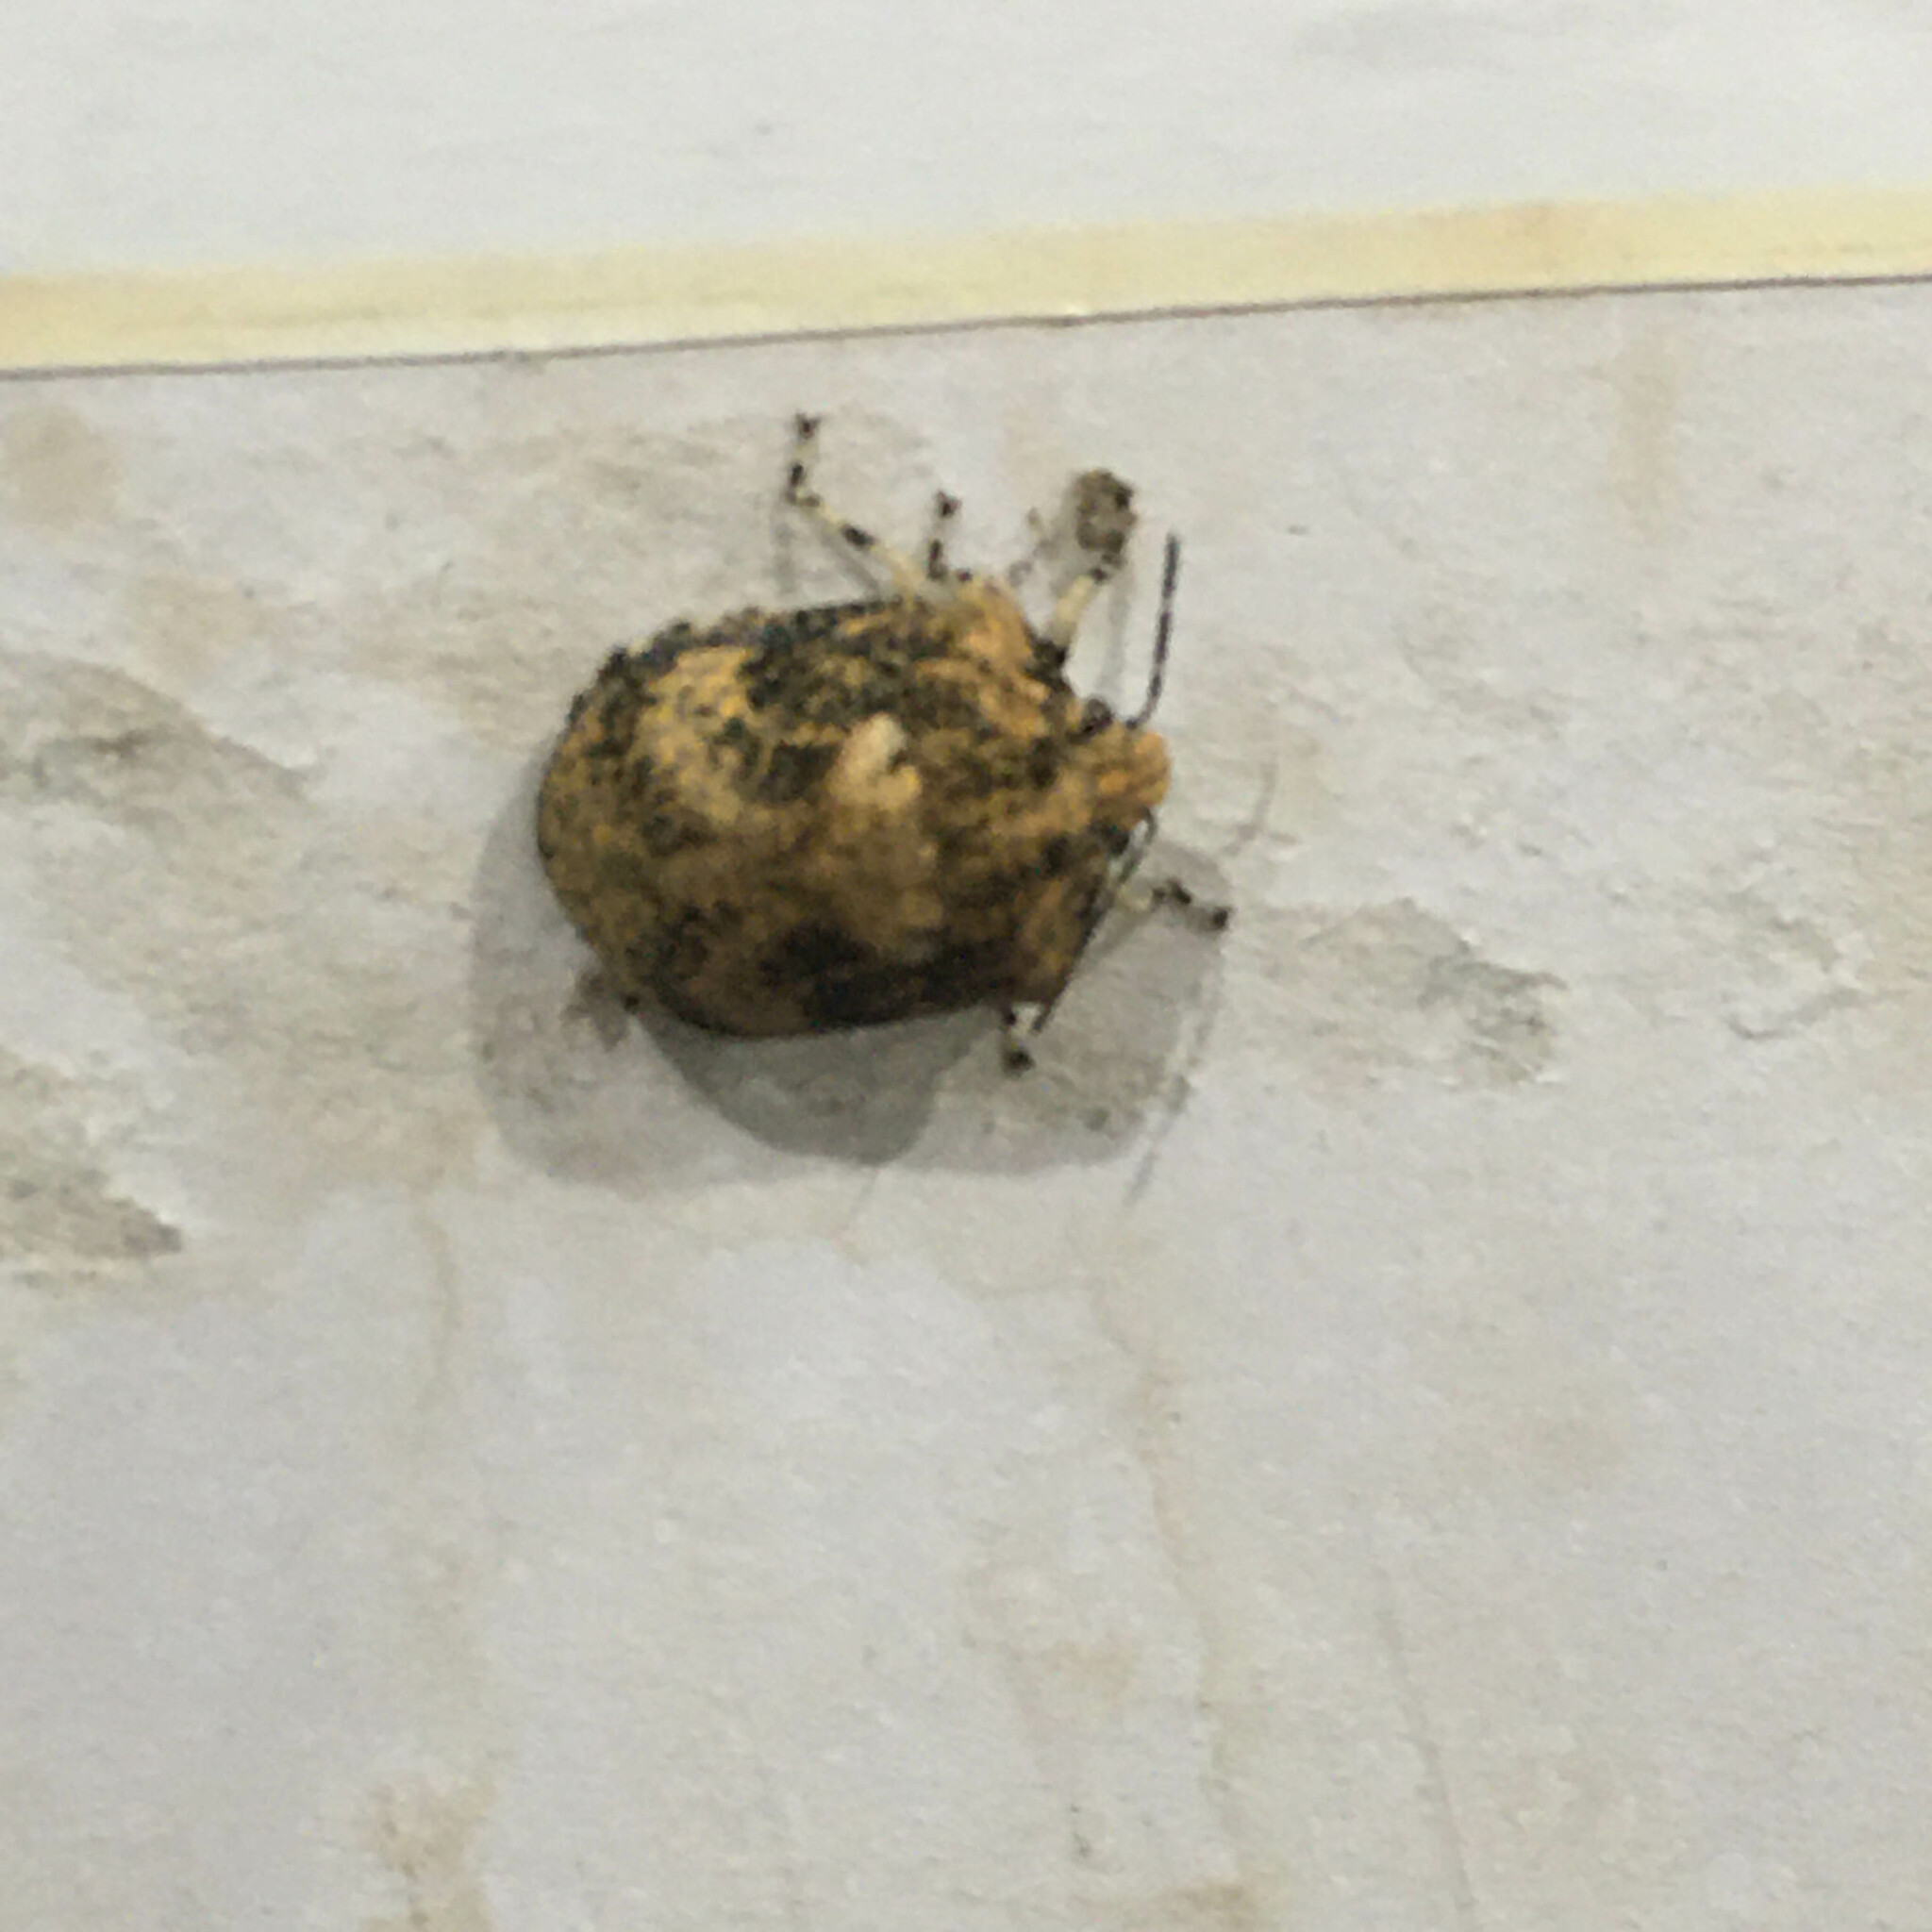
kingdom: Animalia
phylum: Arthropoda
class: Insecta
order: Hemiptera
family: Scutelleridae
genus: Tetyra
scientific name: Tetyra pinguis
